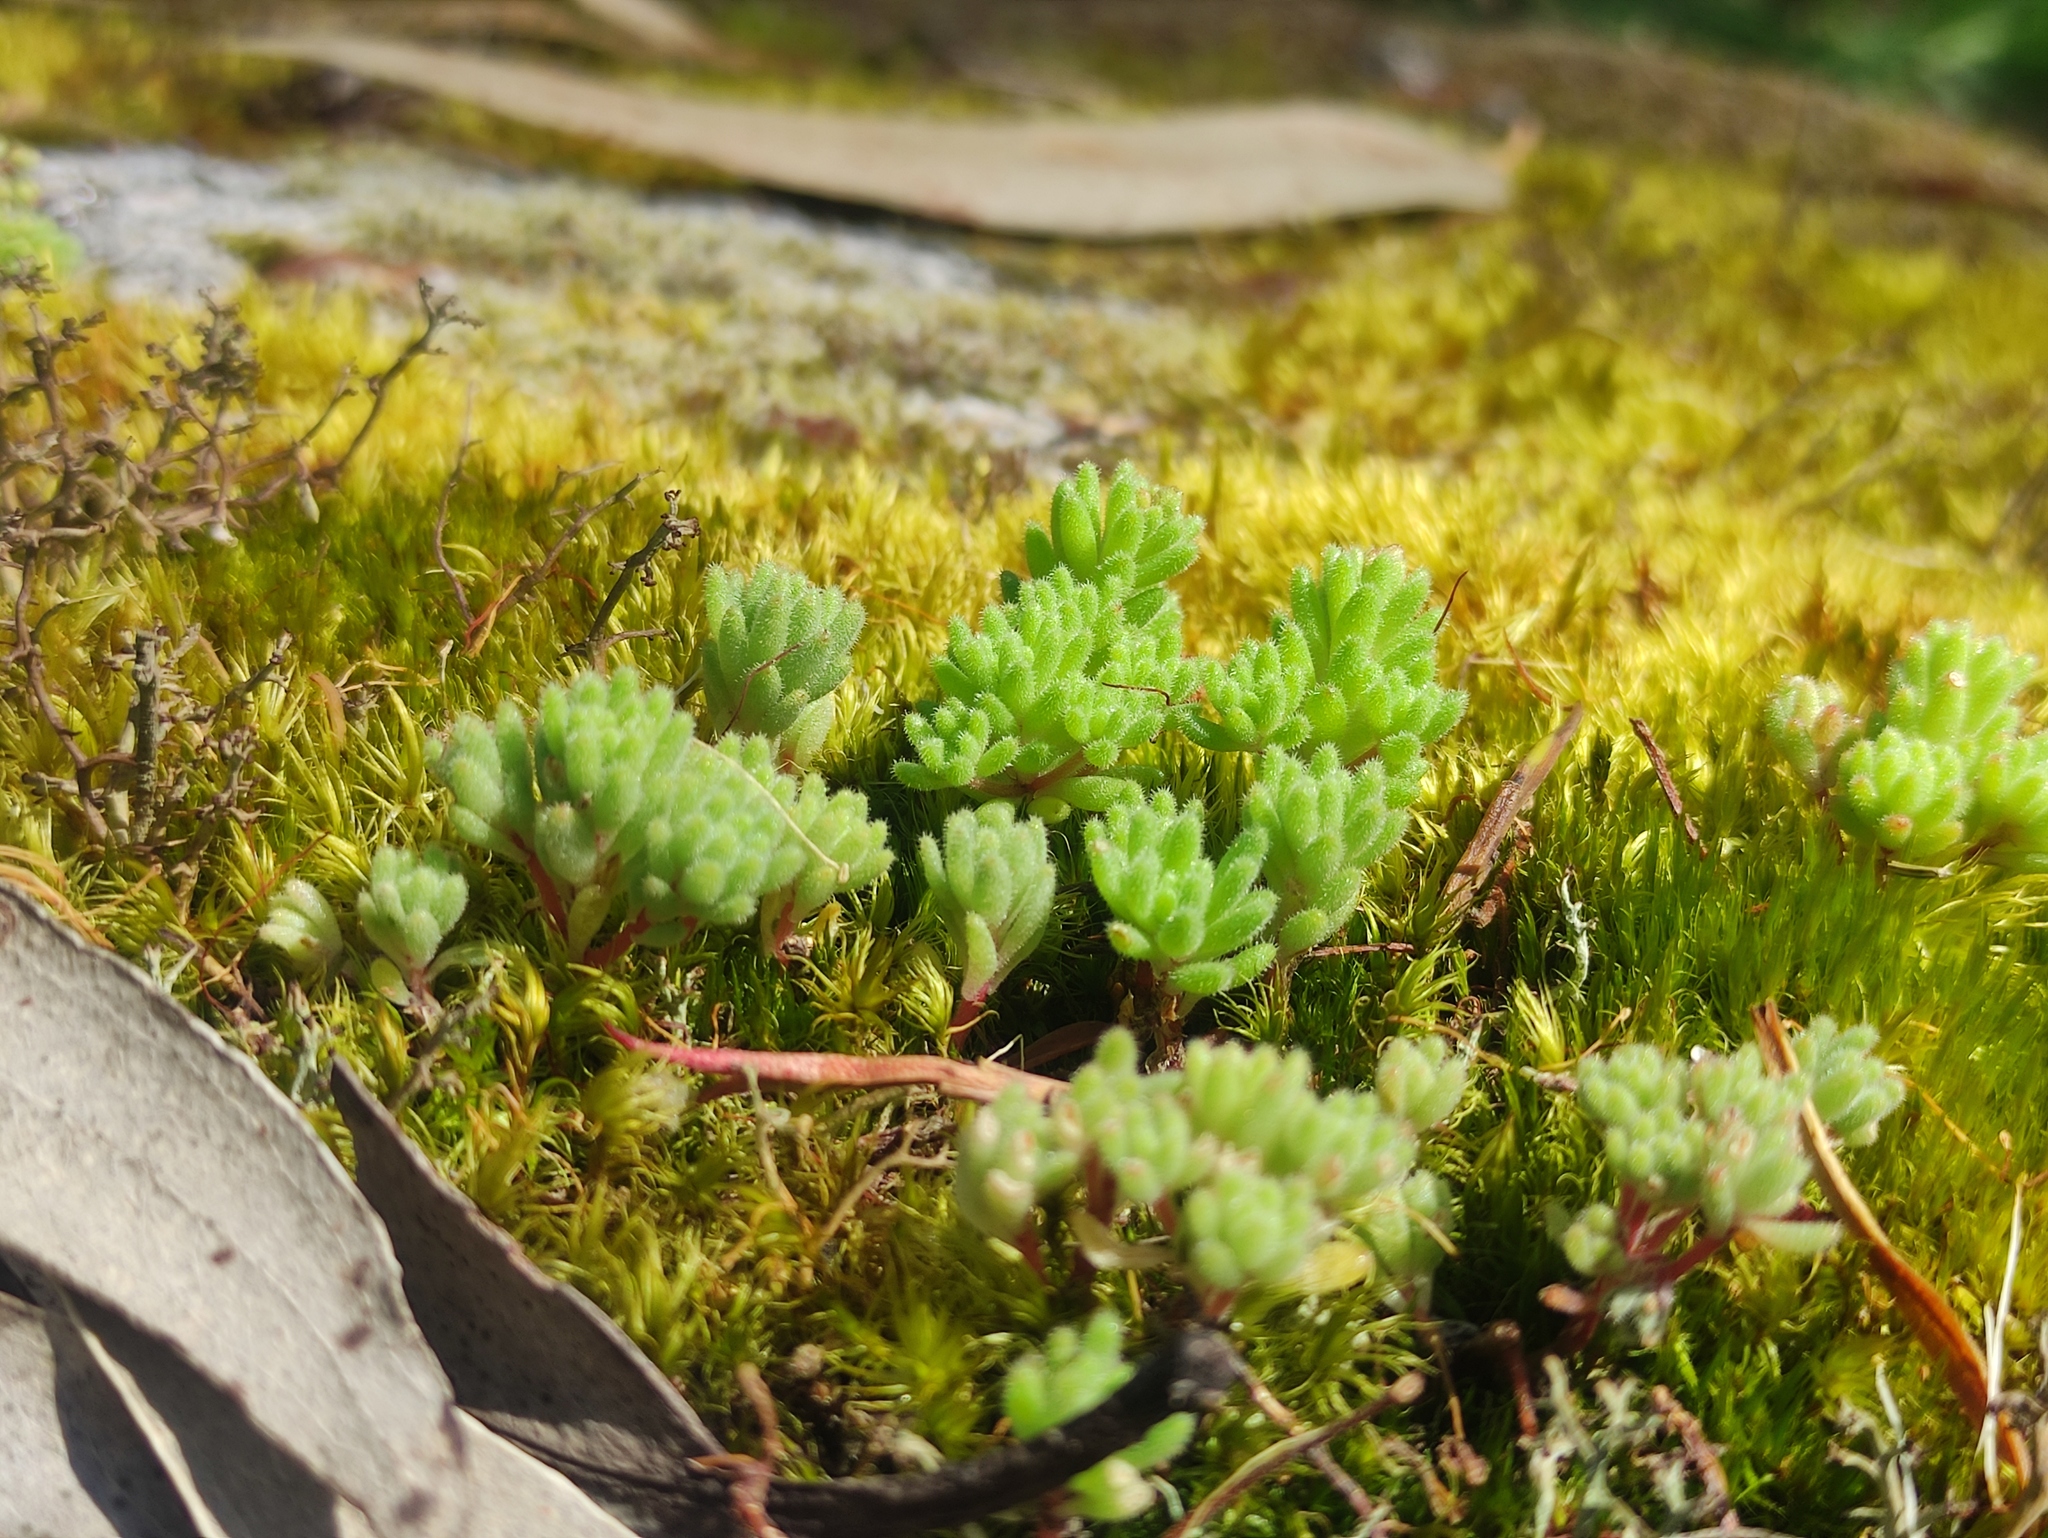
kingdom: Plantae
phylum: Tracheophyta
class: Magnoliopsida
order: Saxifragales
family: Crassulaceae
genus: Sedum
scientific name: Sedum hirsutum
